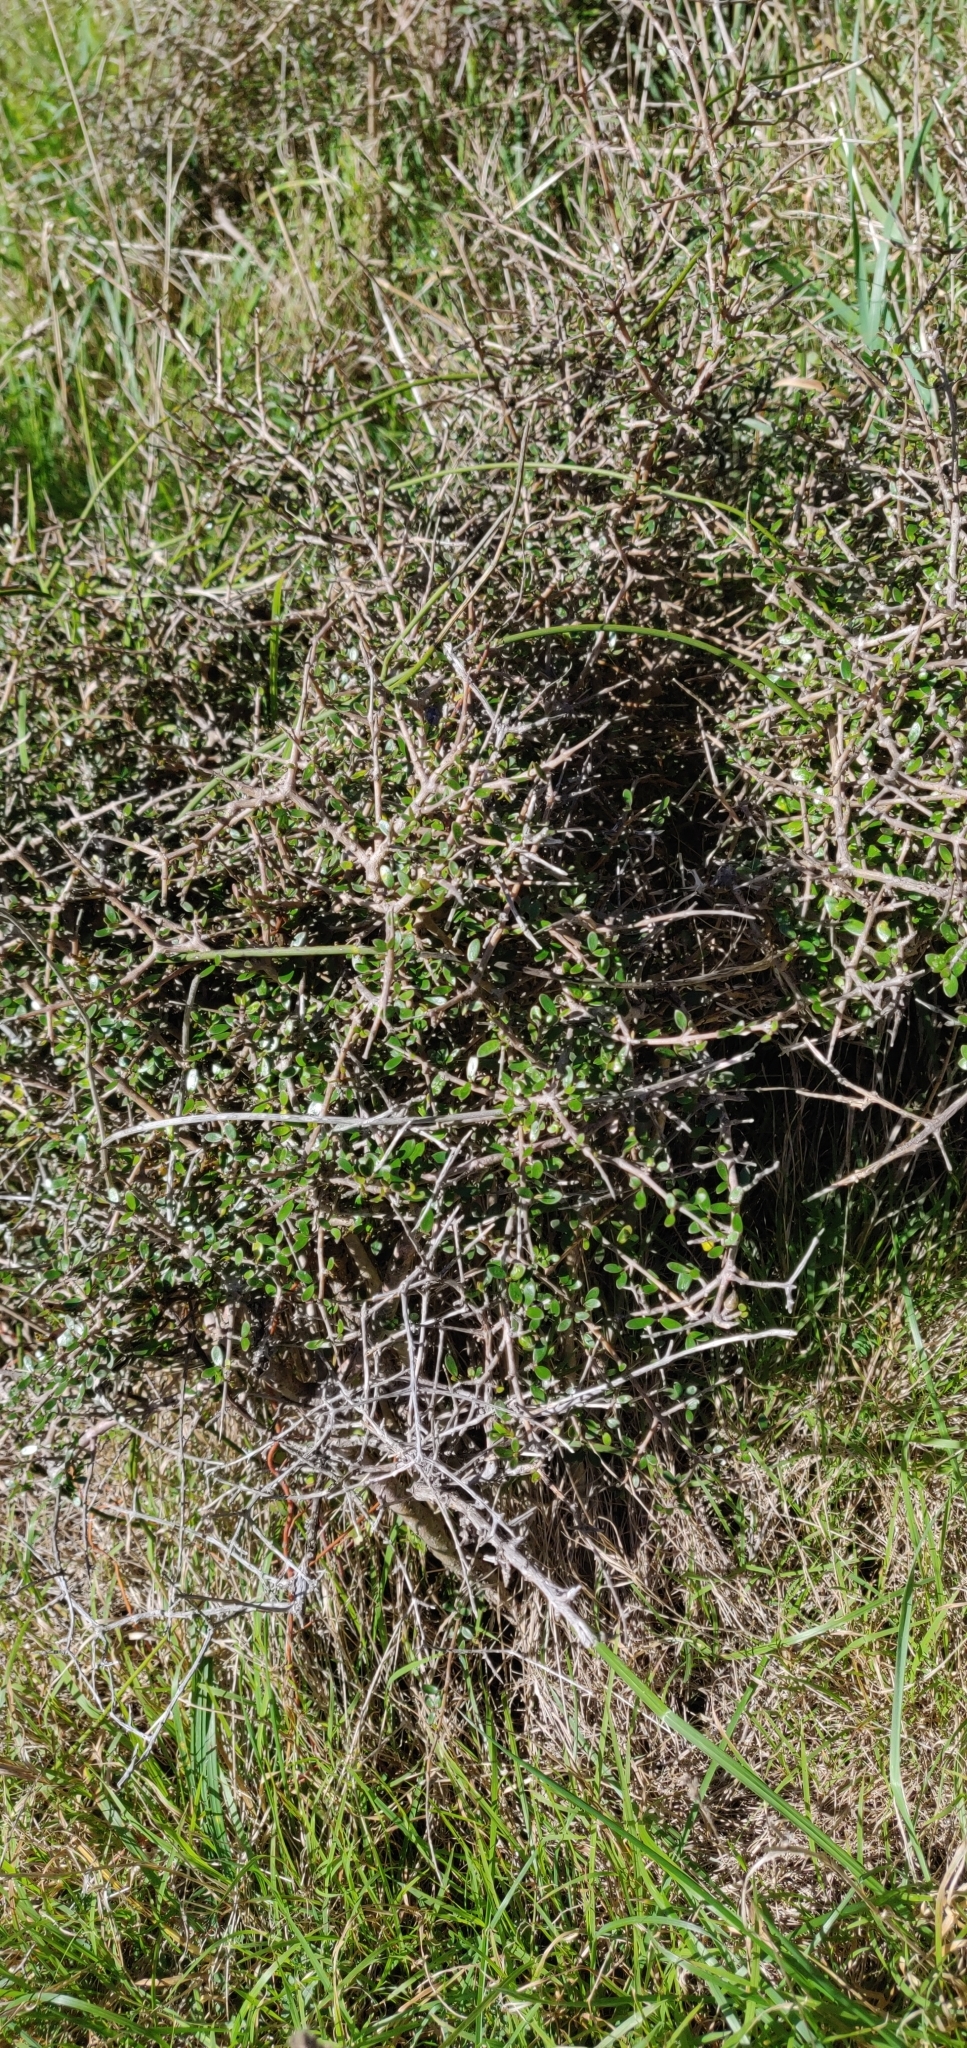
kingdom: Plantae
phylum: Tracheophyta
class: Magnoliopsida
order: Gentianales
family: Rubiaceae
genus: Coprosma
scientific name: Coprosma propinqua
